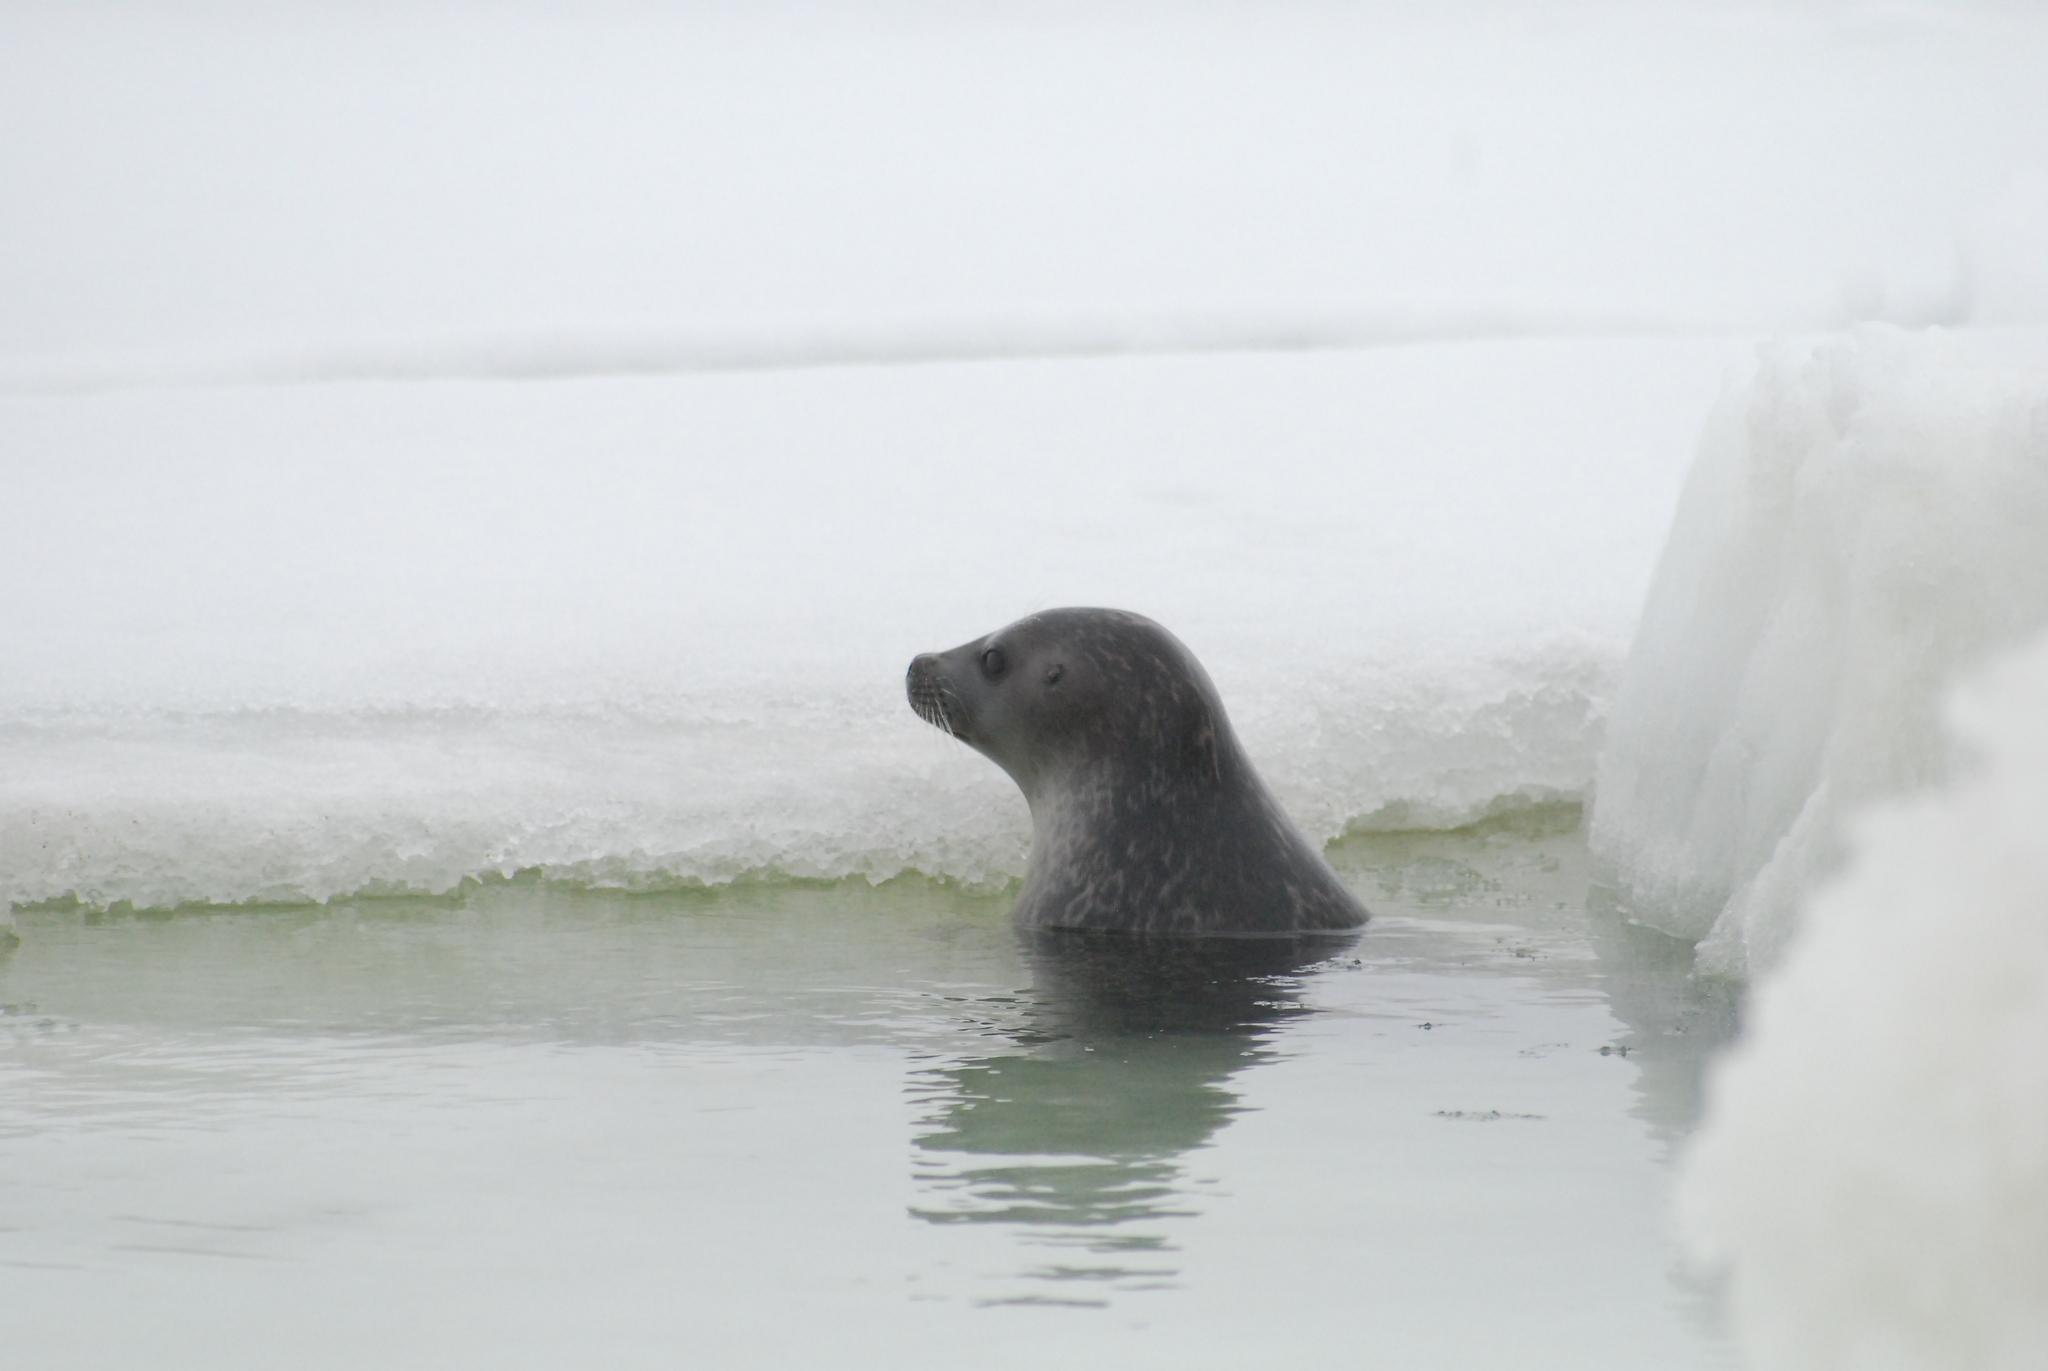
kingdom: Animalia
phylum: Chordata
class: Mammalia
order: Carnivora
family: Phocidae
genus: Pusa
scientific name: Pusa hispida
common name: Ringed seal
